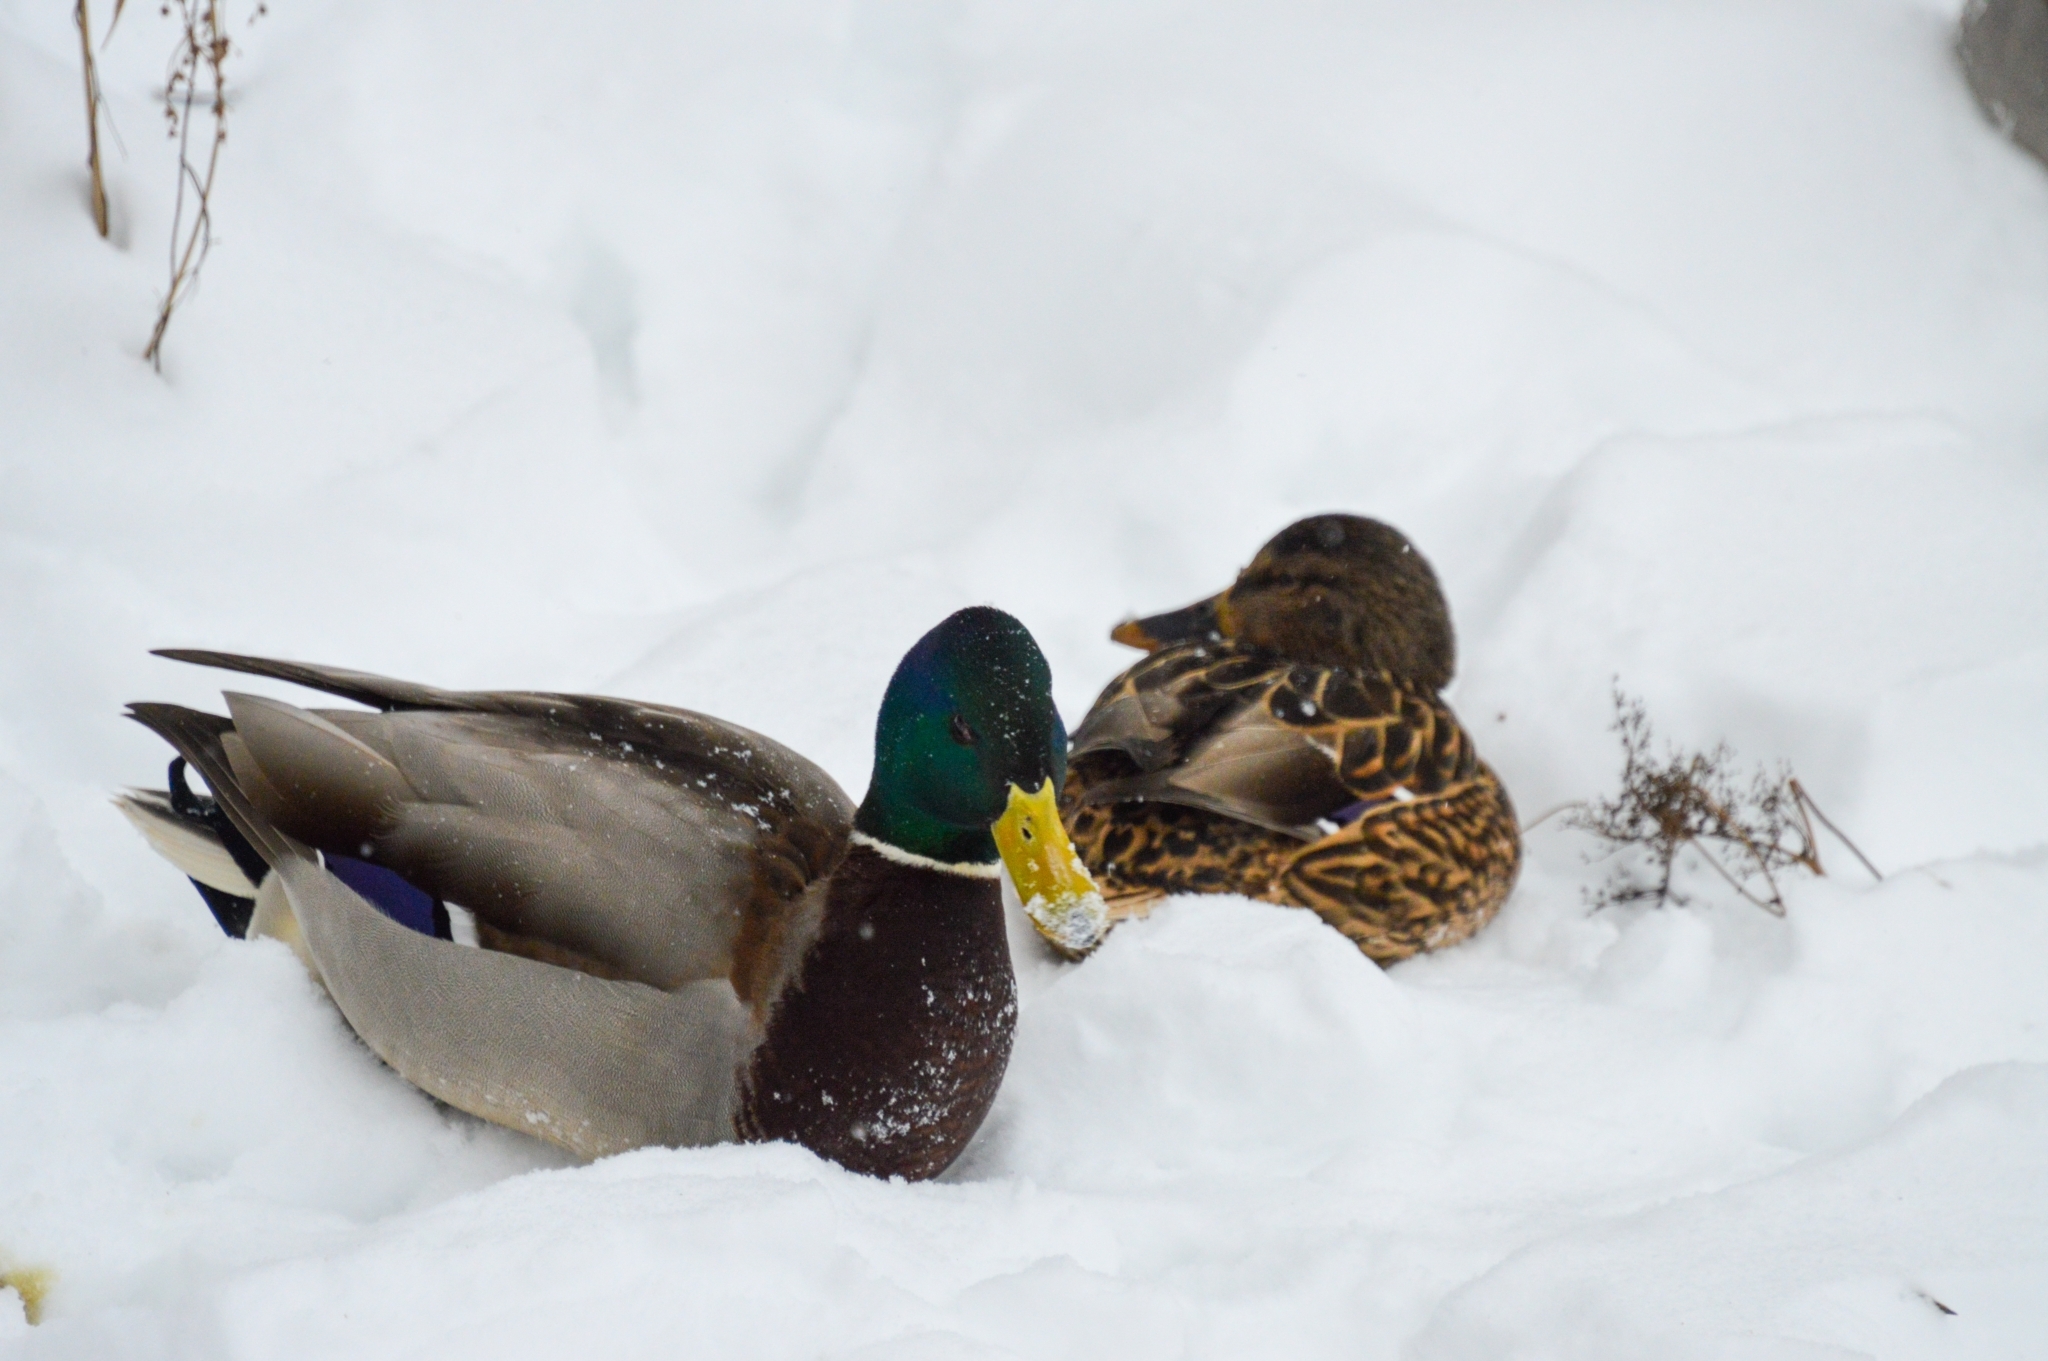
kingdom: Animalia
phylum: Chordata
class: Aves
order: Anseriformes
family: Anatidae
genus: Anas
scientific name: Anas platyrhynchos
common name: Mallard
